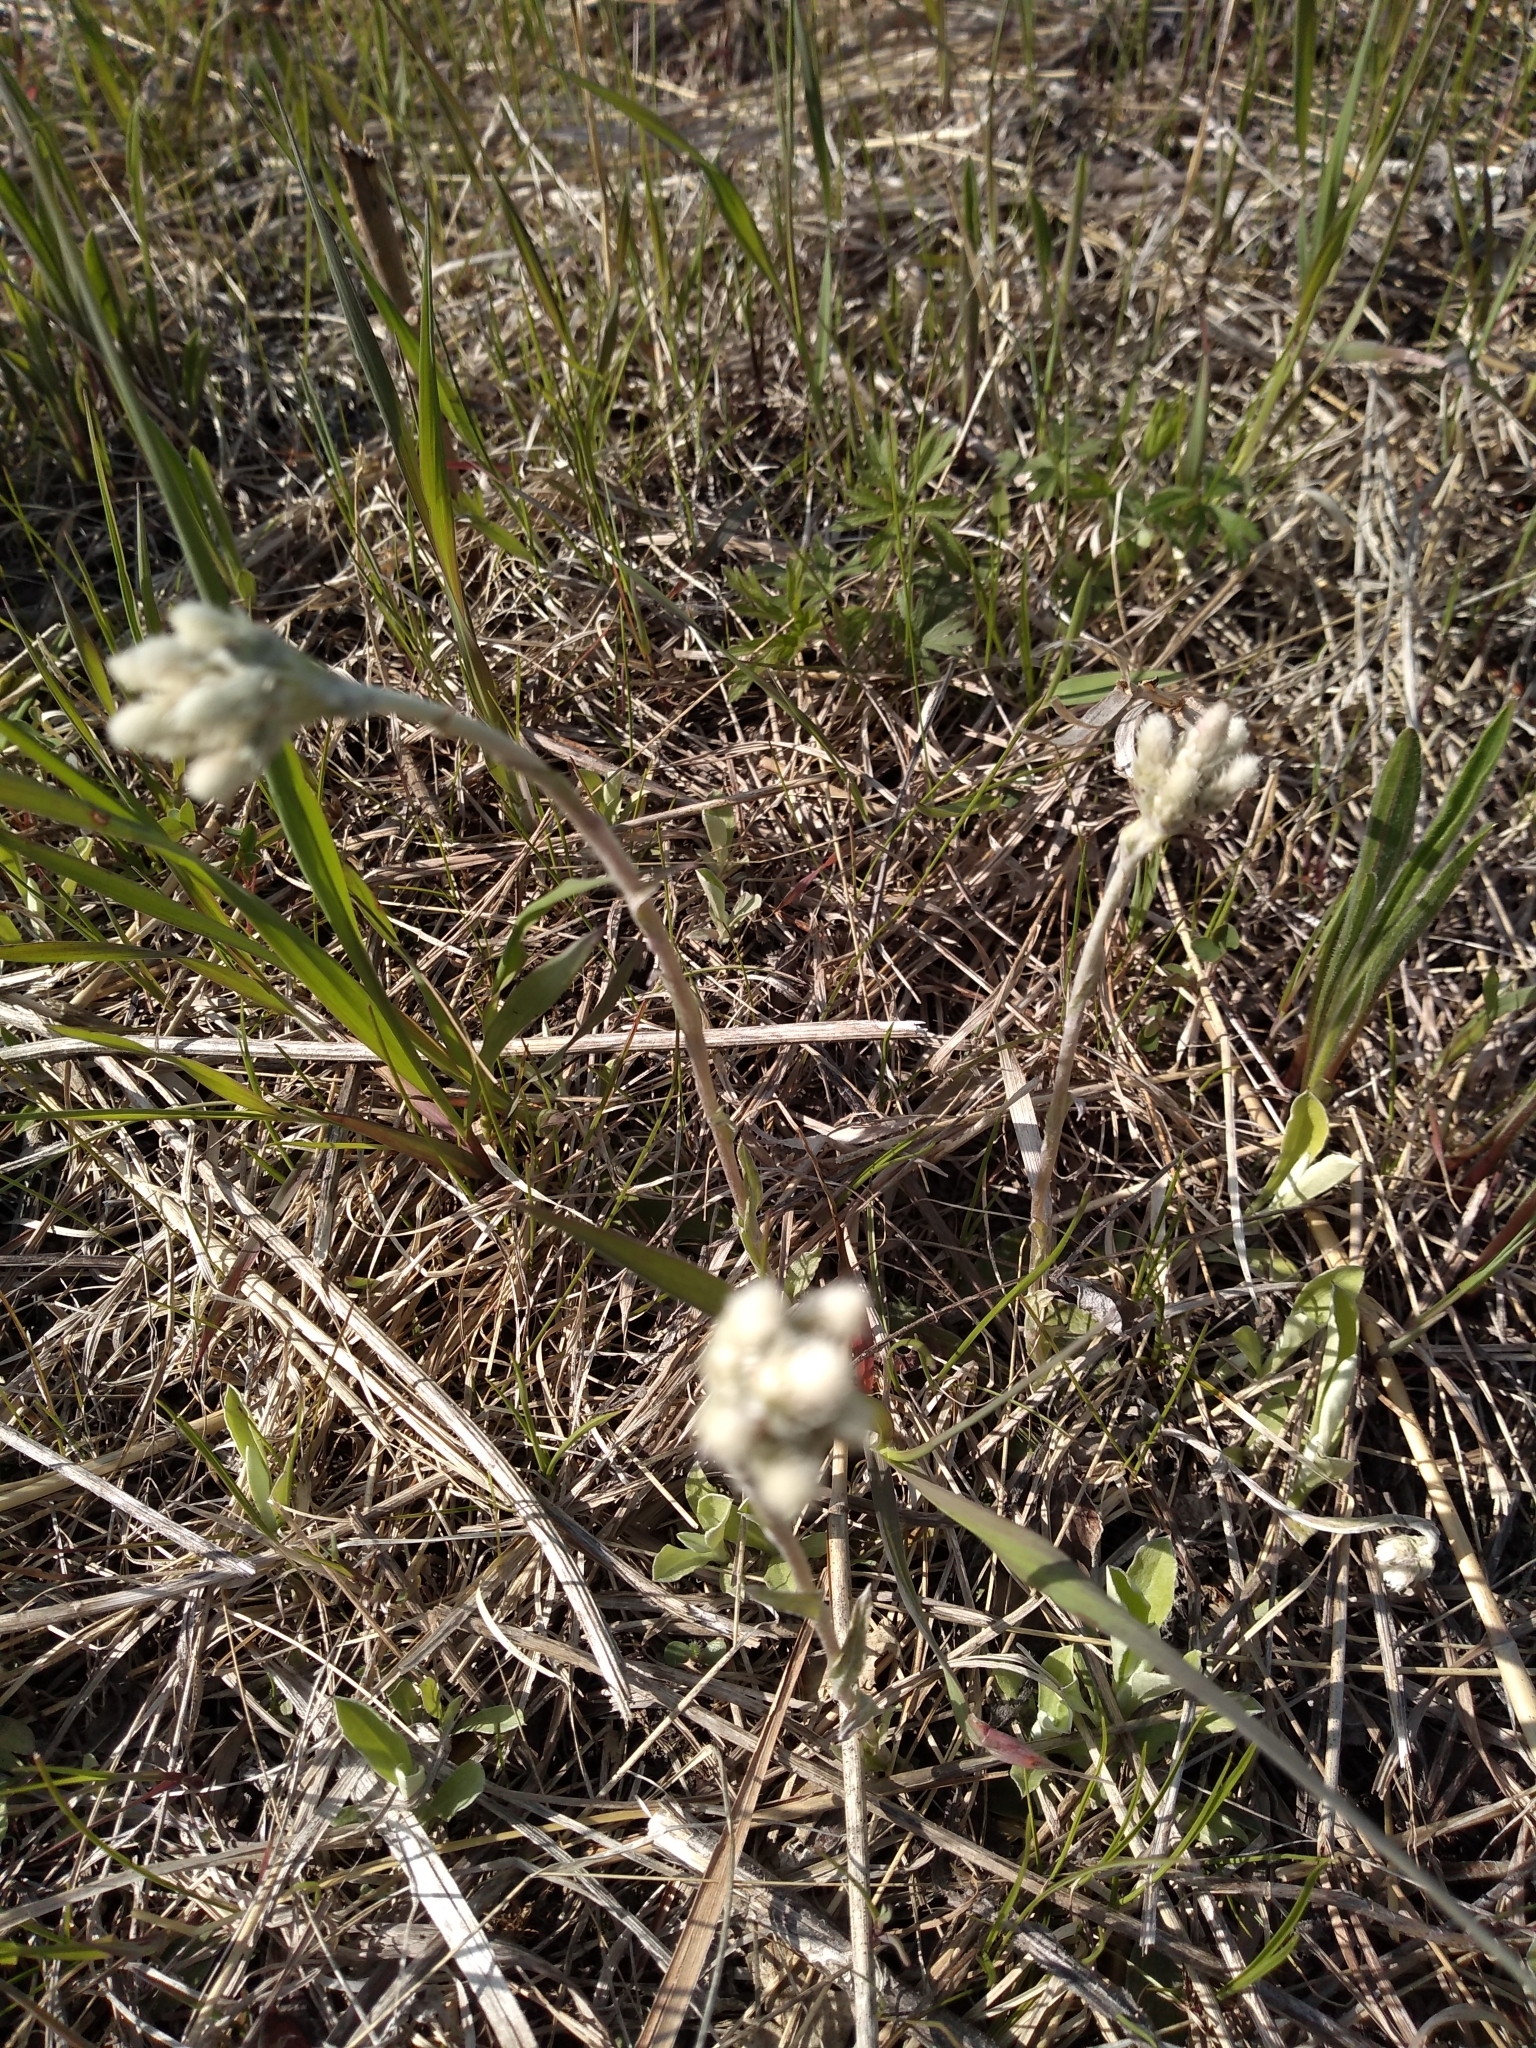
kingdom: Plantae
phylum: Tracheophyta
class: Magnoliopsida
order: Asterales
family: Asteraceae
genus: Antennaria
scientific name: Antennaria neglecta
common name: Field pussytoes
